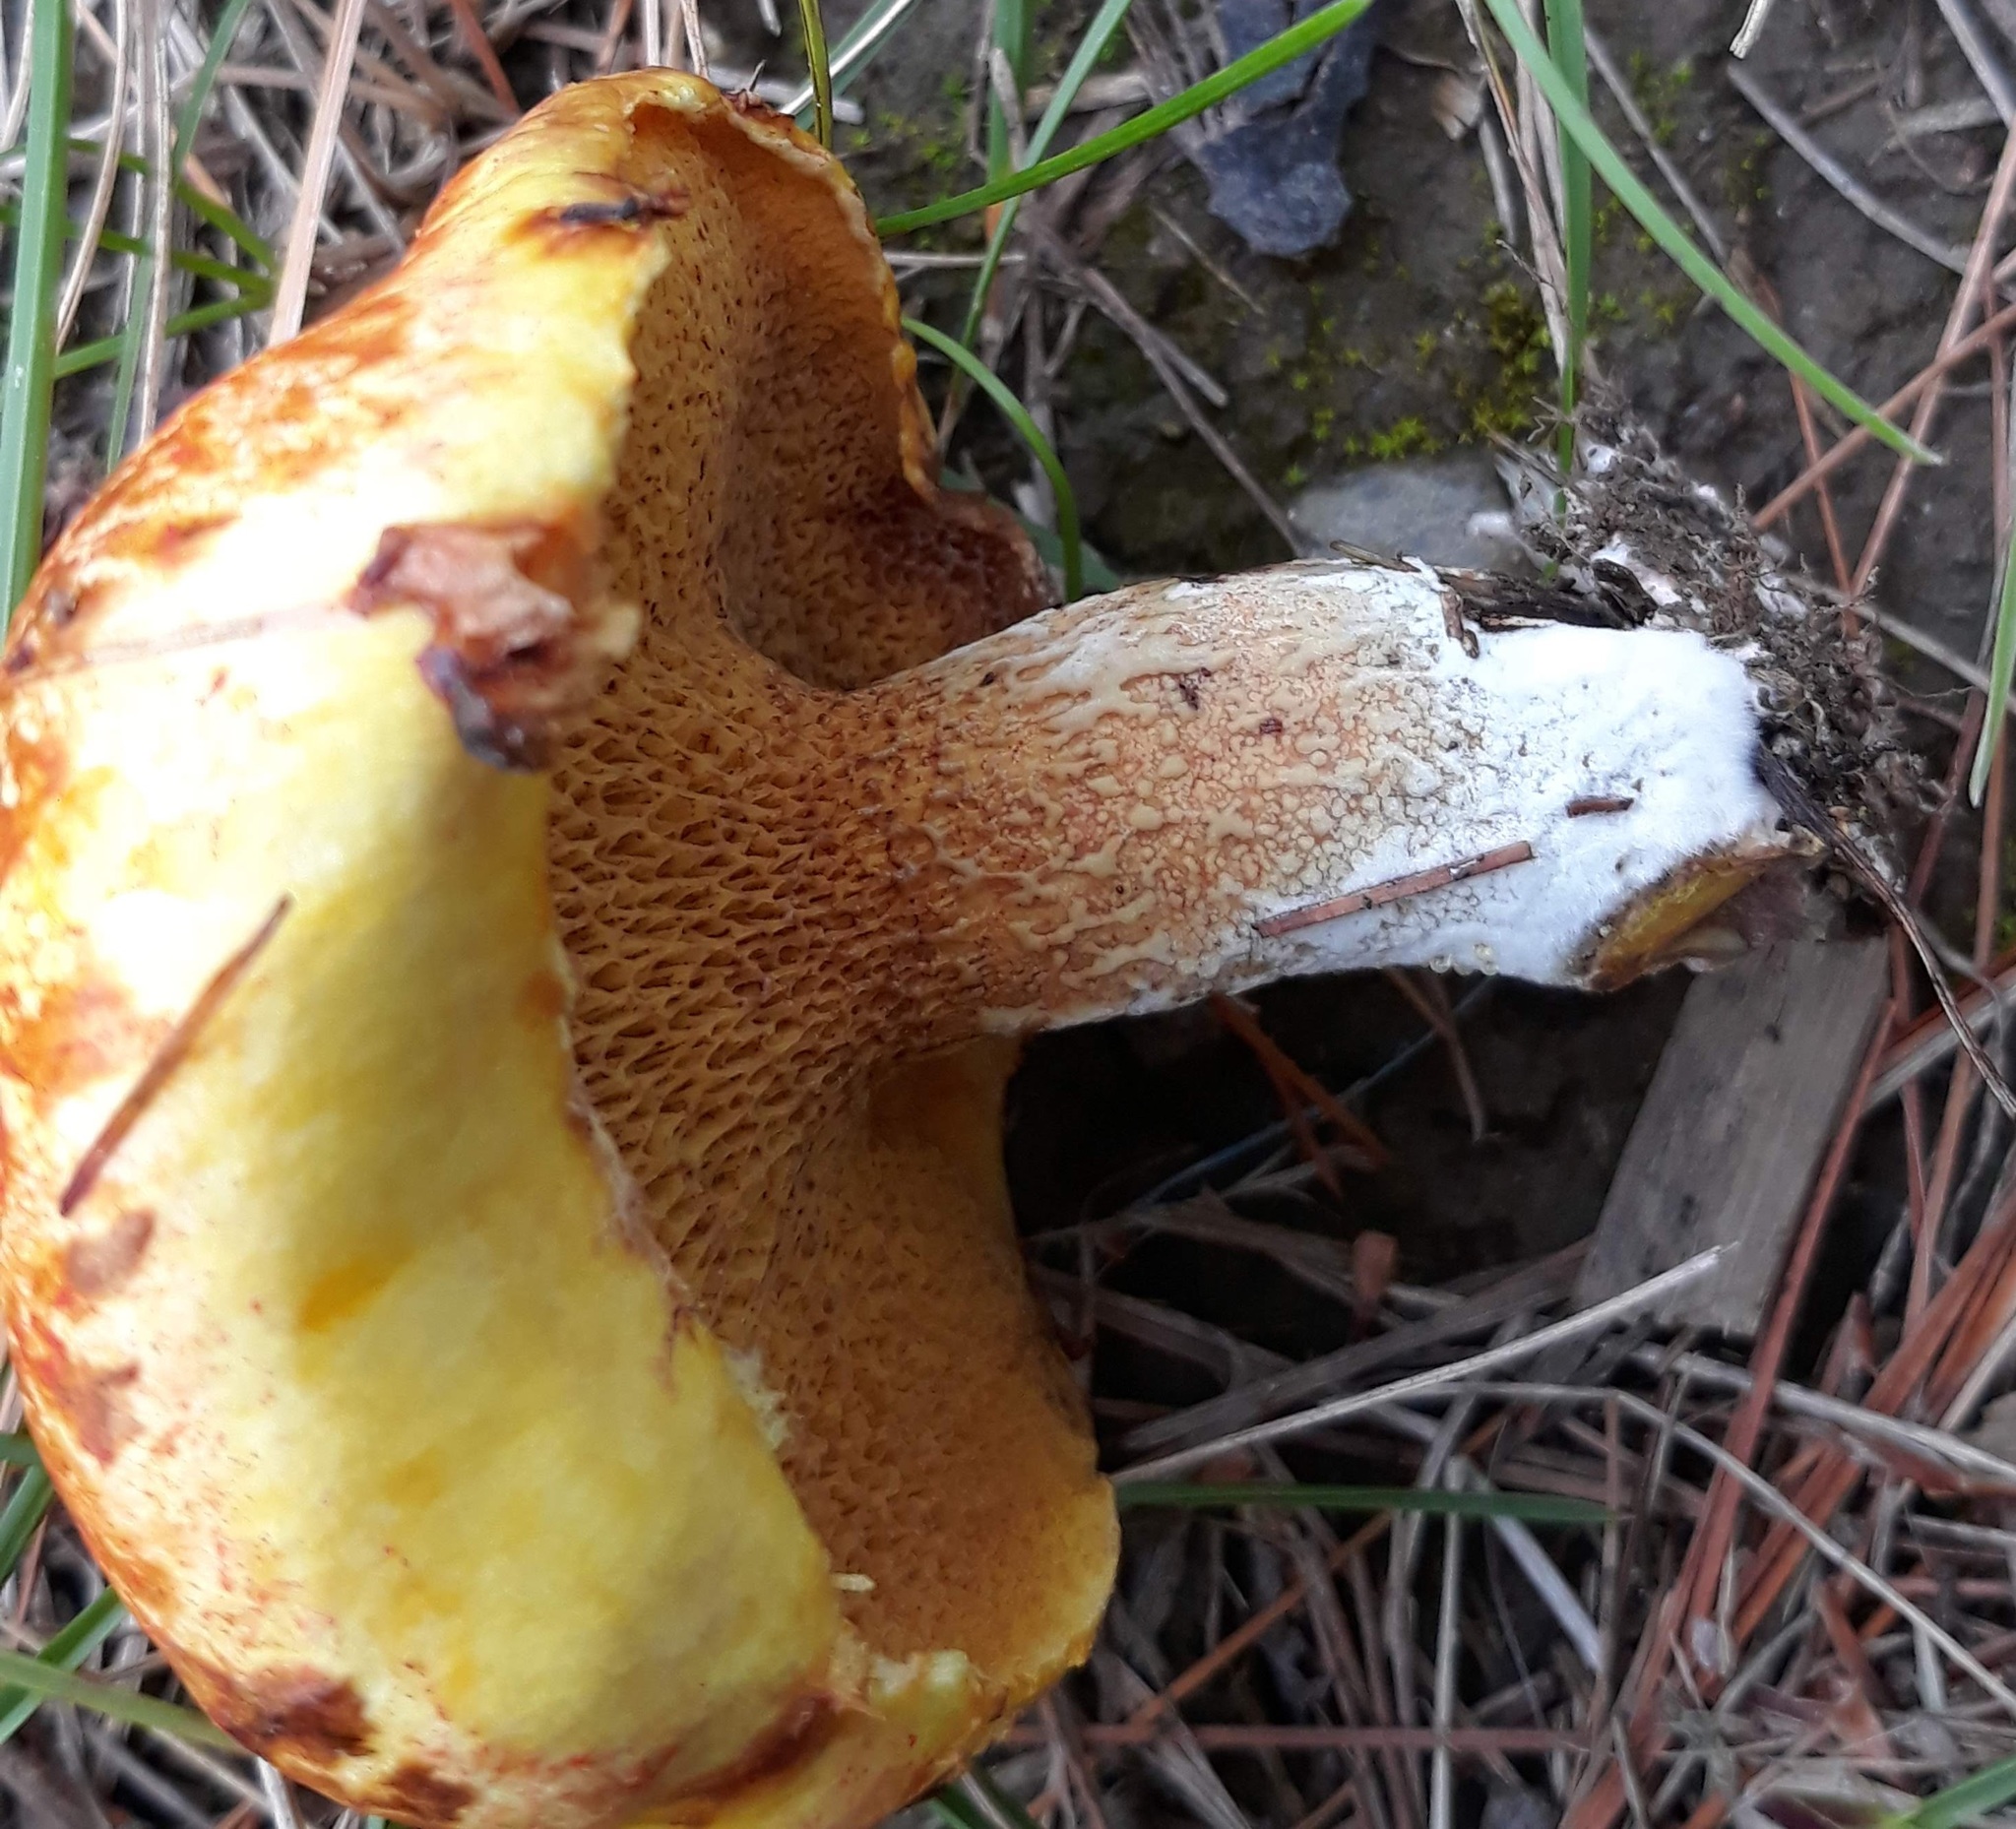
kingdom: Fungi
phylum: Basidiomycota
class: Agaricomycetes
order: Boletales
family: Suillaceae
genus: Suillus
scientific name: Suillus americanus
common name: Chicken fat mushroom
